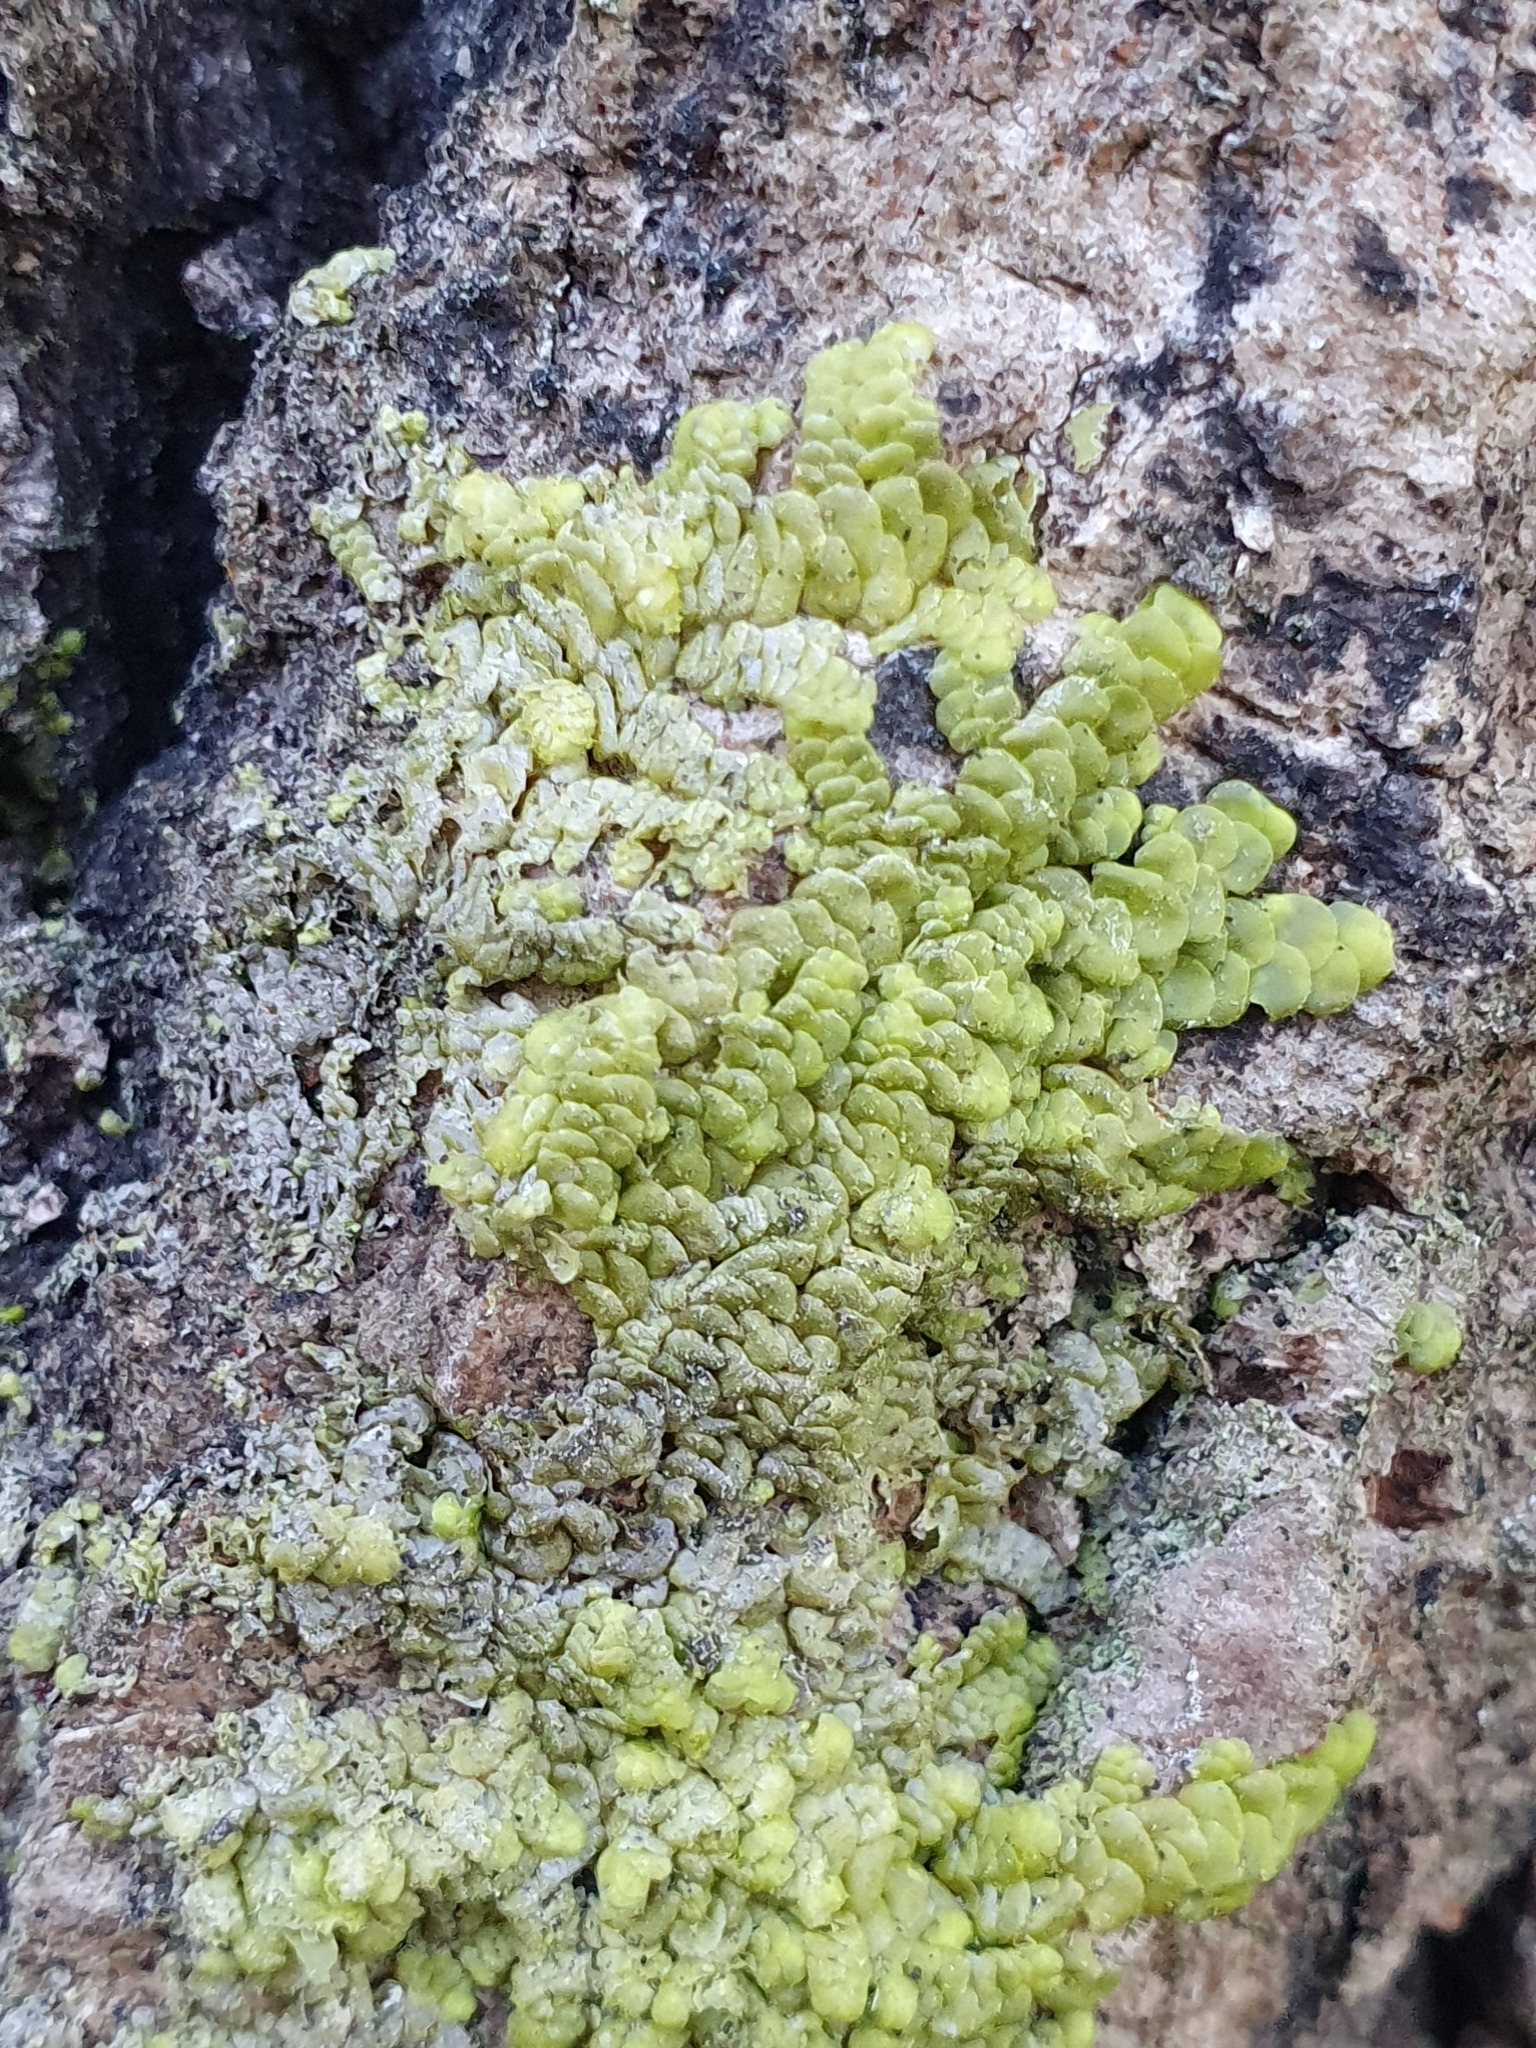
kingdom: Plantae
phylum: Marchantiophyta
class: Jungermanniopsida
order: Porellales
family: Radulaceae
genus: Radula
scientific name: Radula complanata
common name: Flat-leaved scalewort
